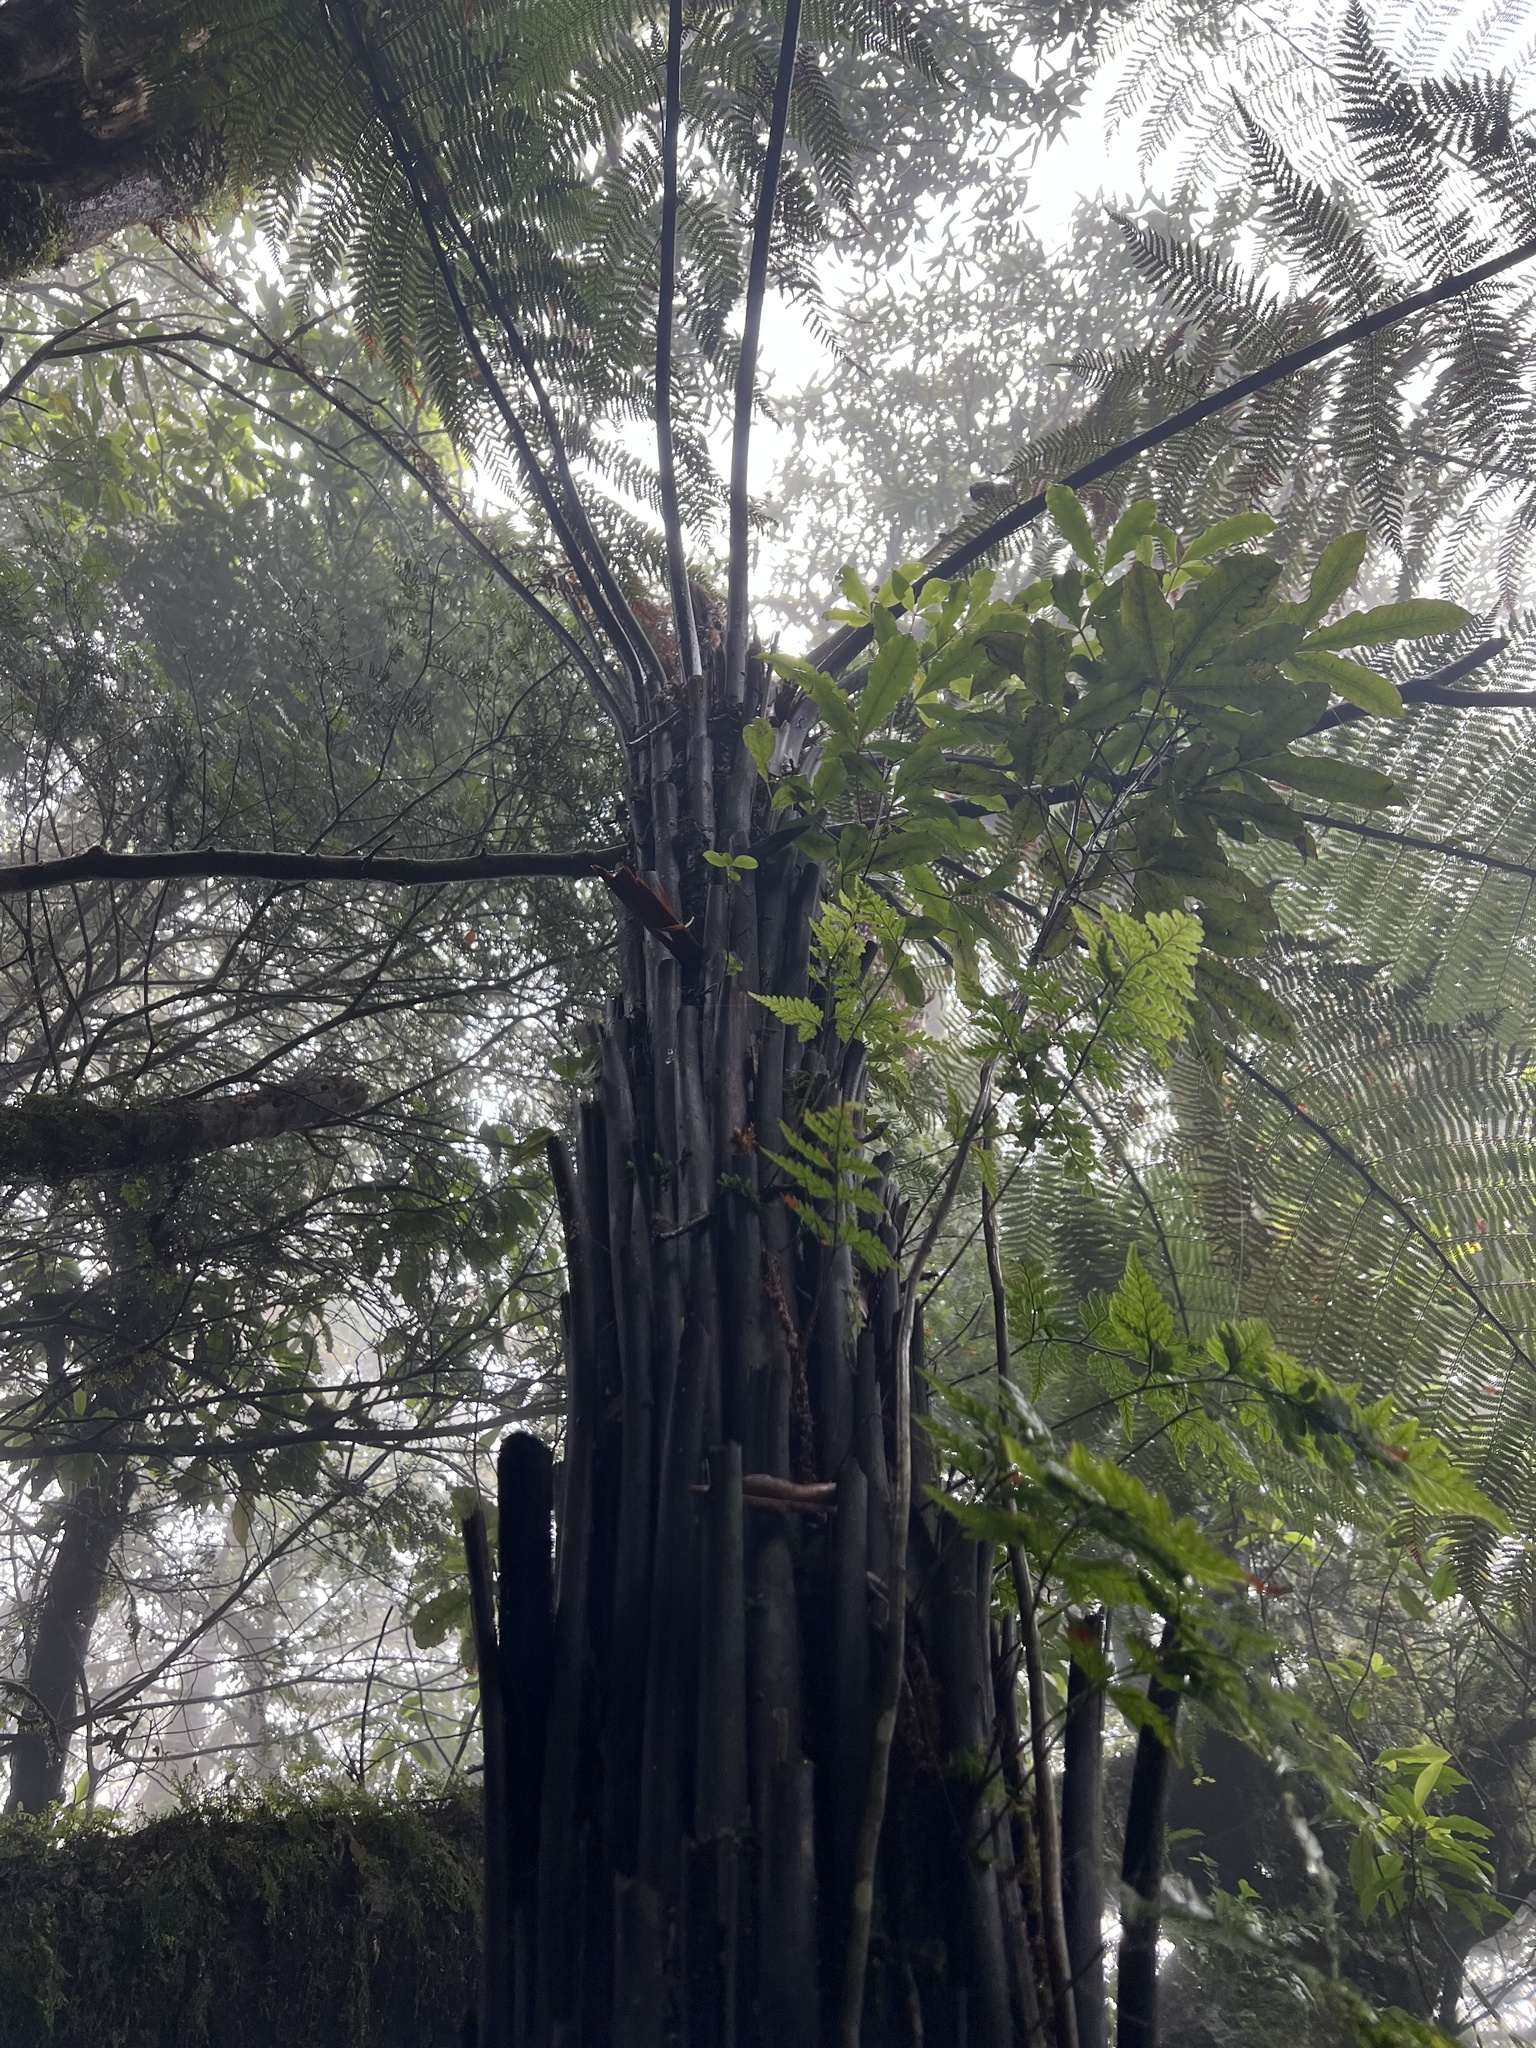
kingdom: Plantae
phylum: Tracheophyta
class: Polypodiopsida
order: Cyatheales
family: Dicksoniaceae
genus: Dicksonia
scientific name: Dicksonia squarrosa
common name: Hard treefern
